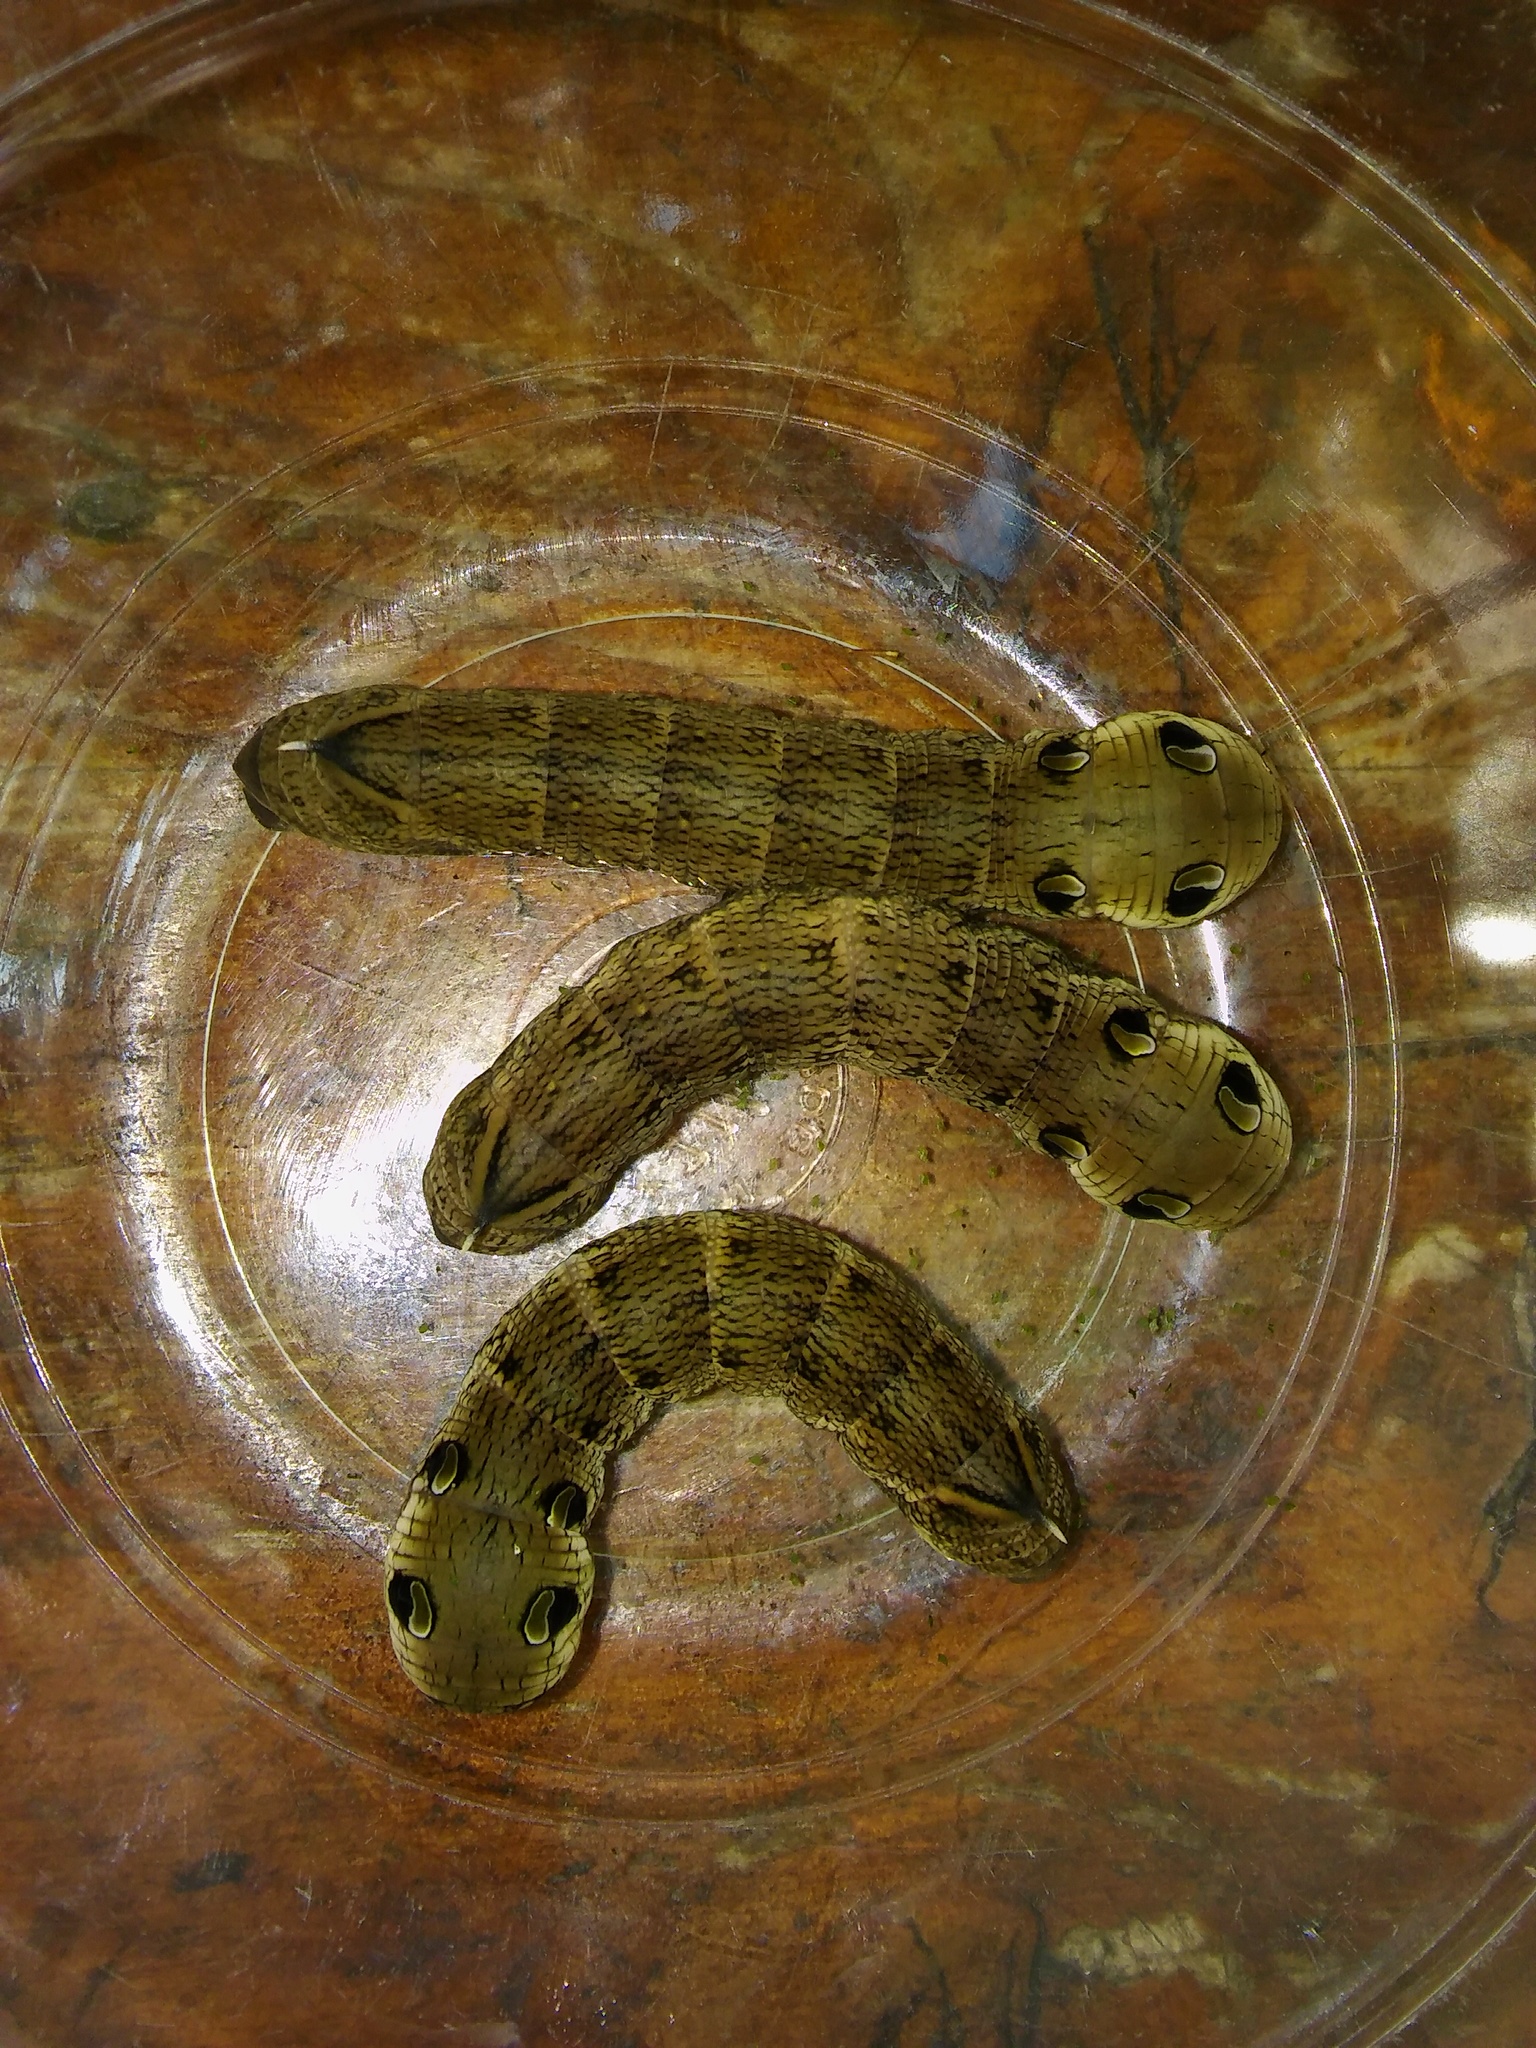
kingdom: Animalia
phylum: Arthropoda
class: Insecta
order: Lepidoptera
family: Sphingidae
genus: Deilephila
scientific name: Deilephila elpenor
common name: Elephant hawk-moth
